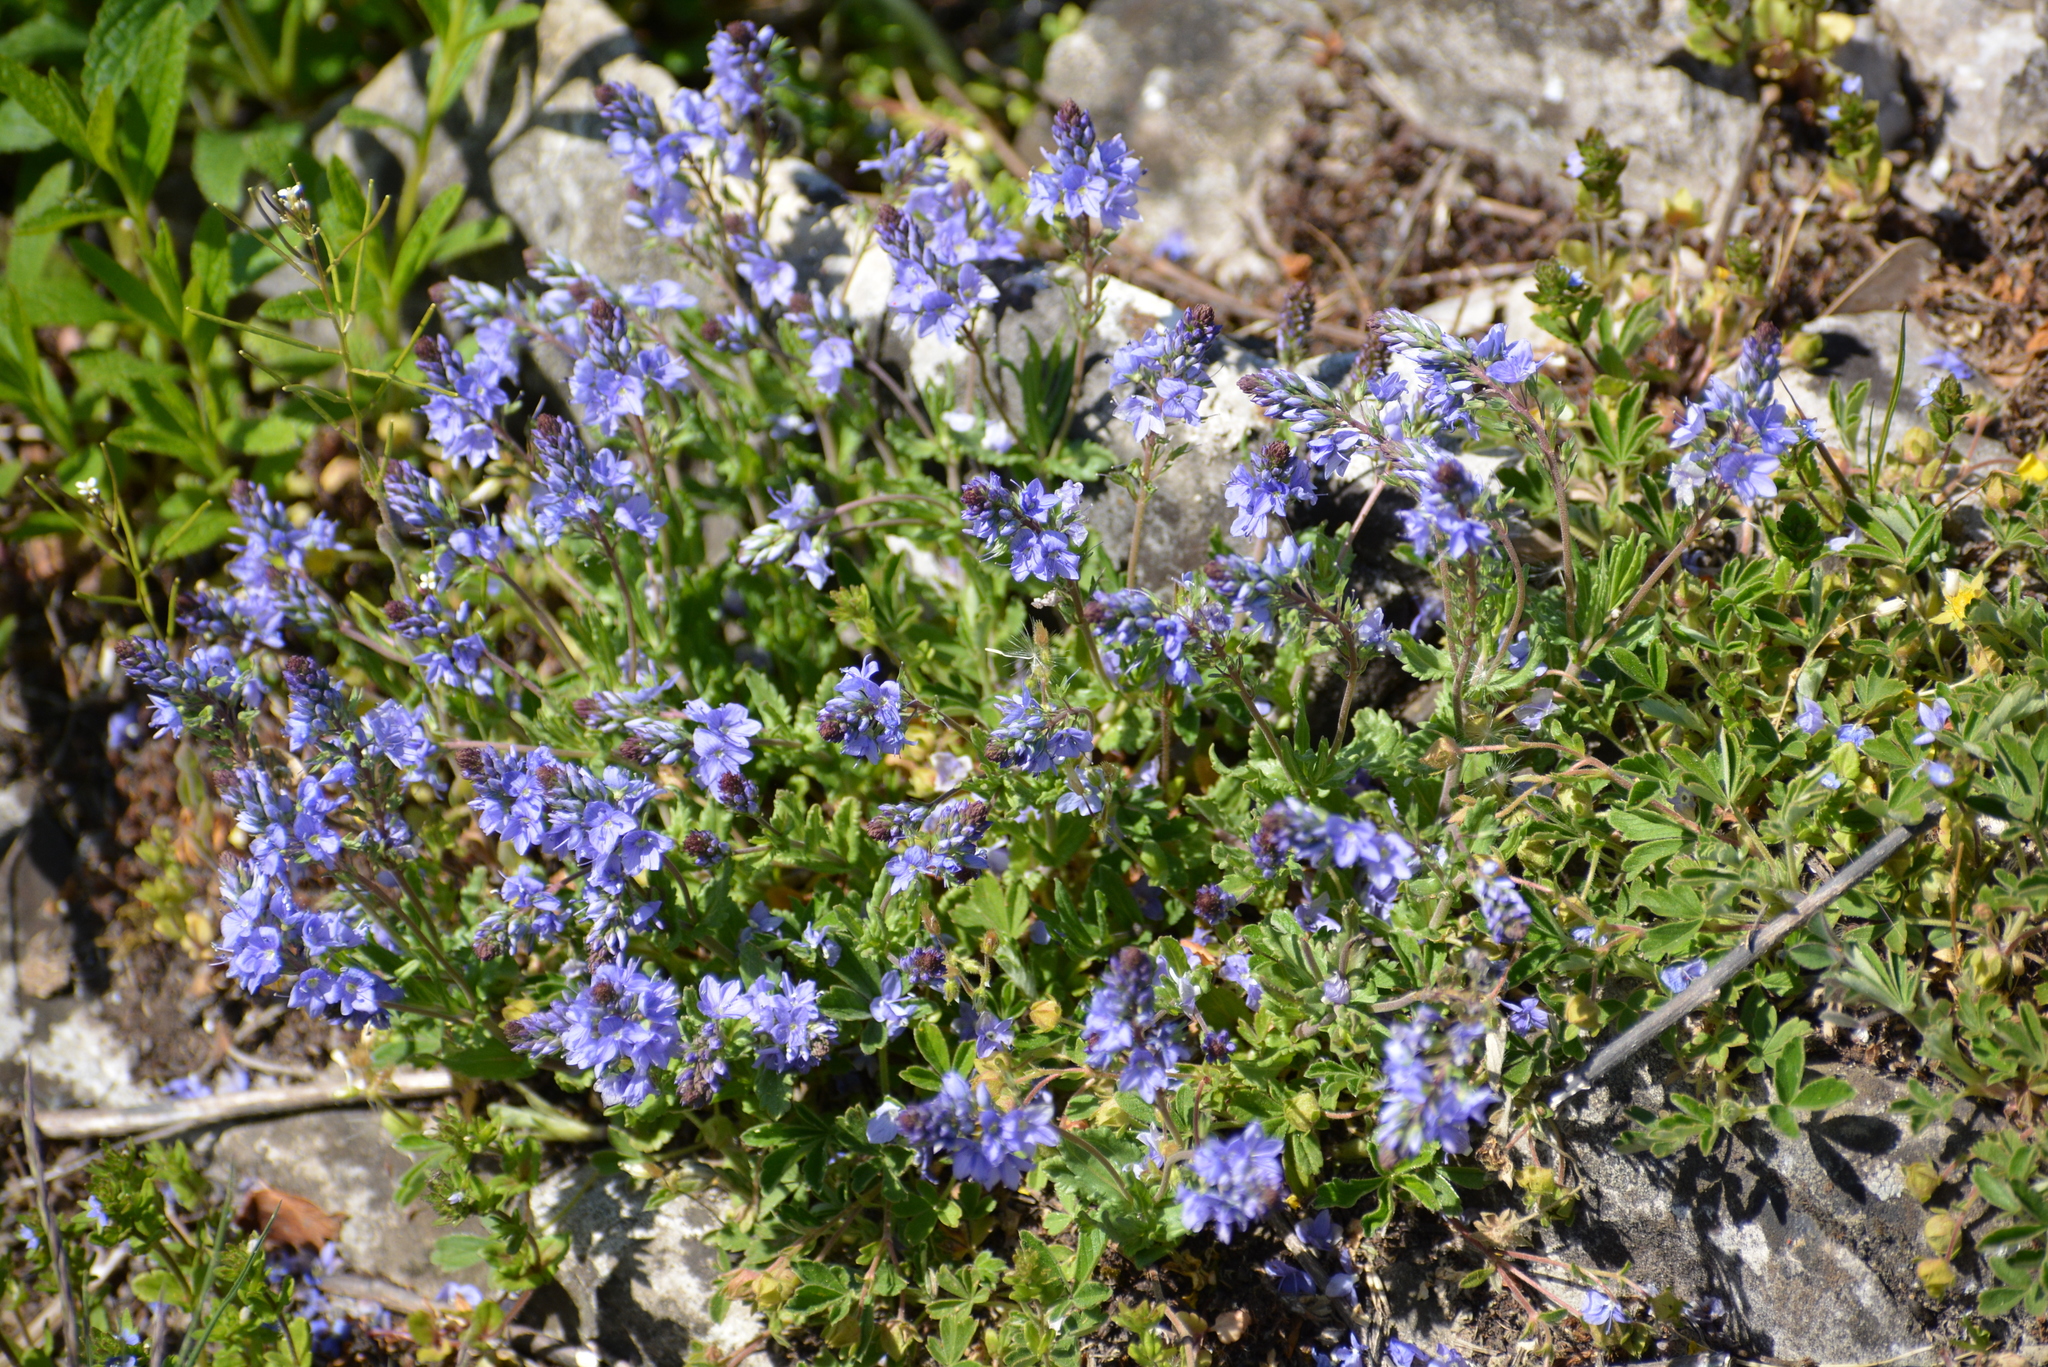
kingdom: Plantae
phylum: Tracheophyta
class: Magnoliopsida
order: Lamiales
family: Plantaginaceae
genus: Veronica
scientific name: Veronica prostrata
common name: Prostrate speedwell
